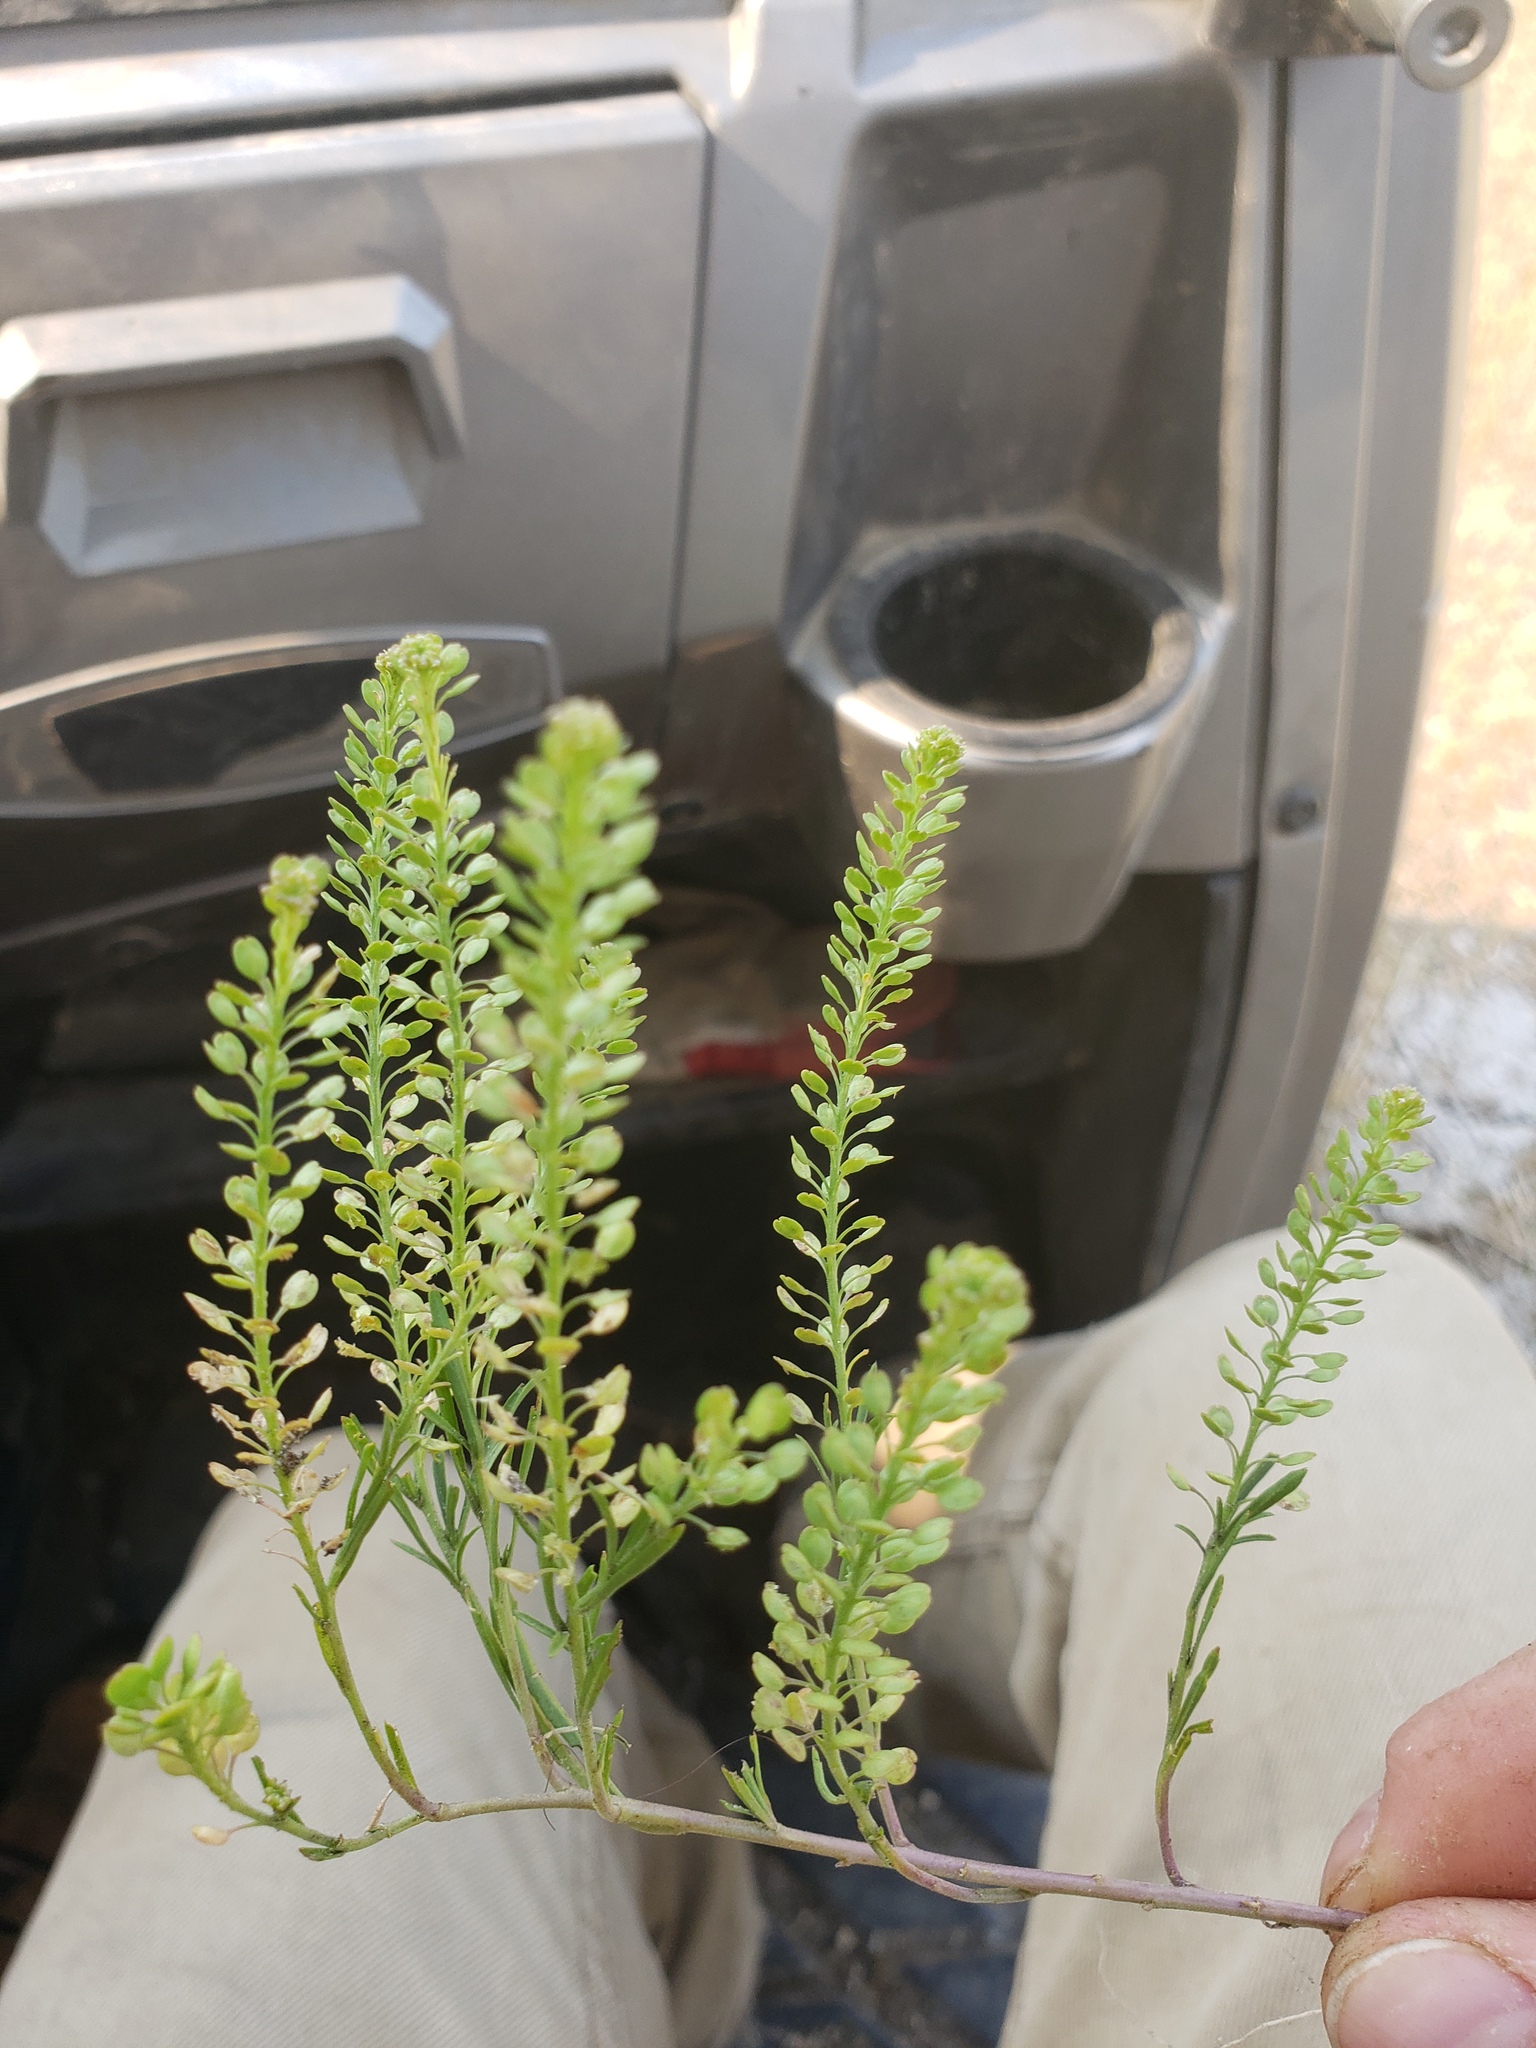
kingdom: Plantae
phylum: Tracheophyta
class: Magnoliopsida
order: Brassicales
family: Brassicaceae
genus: Lepidium
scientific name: Lepidium densiflorum
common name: Miner's pepperwort
